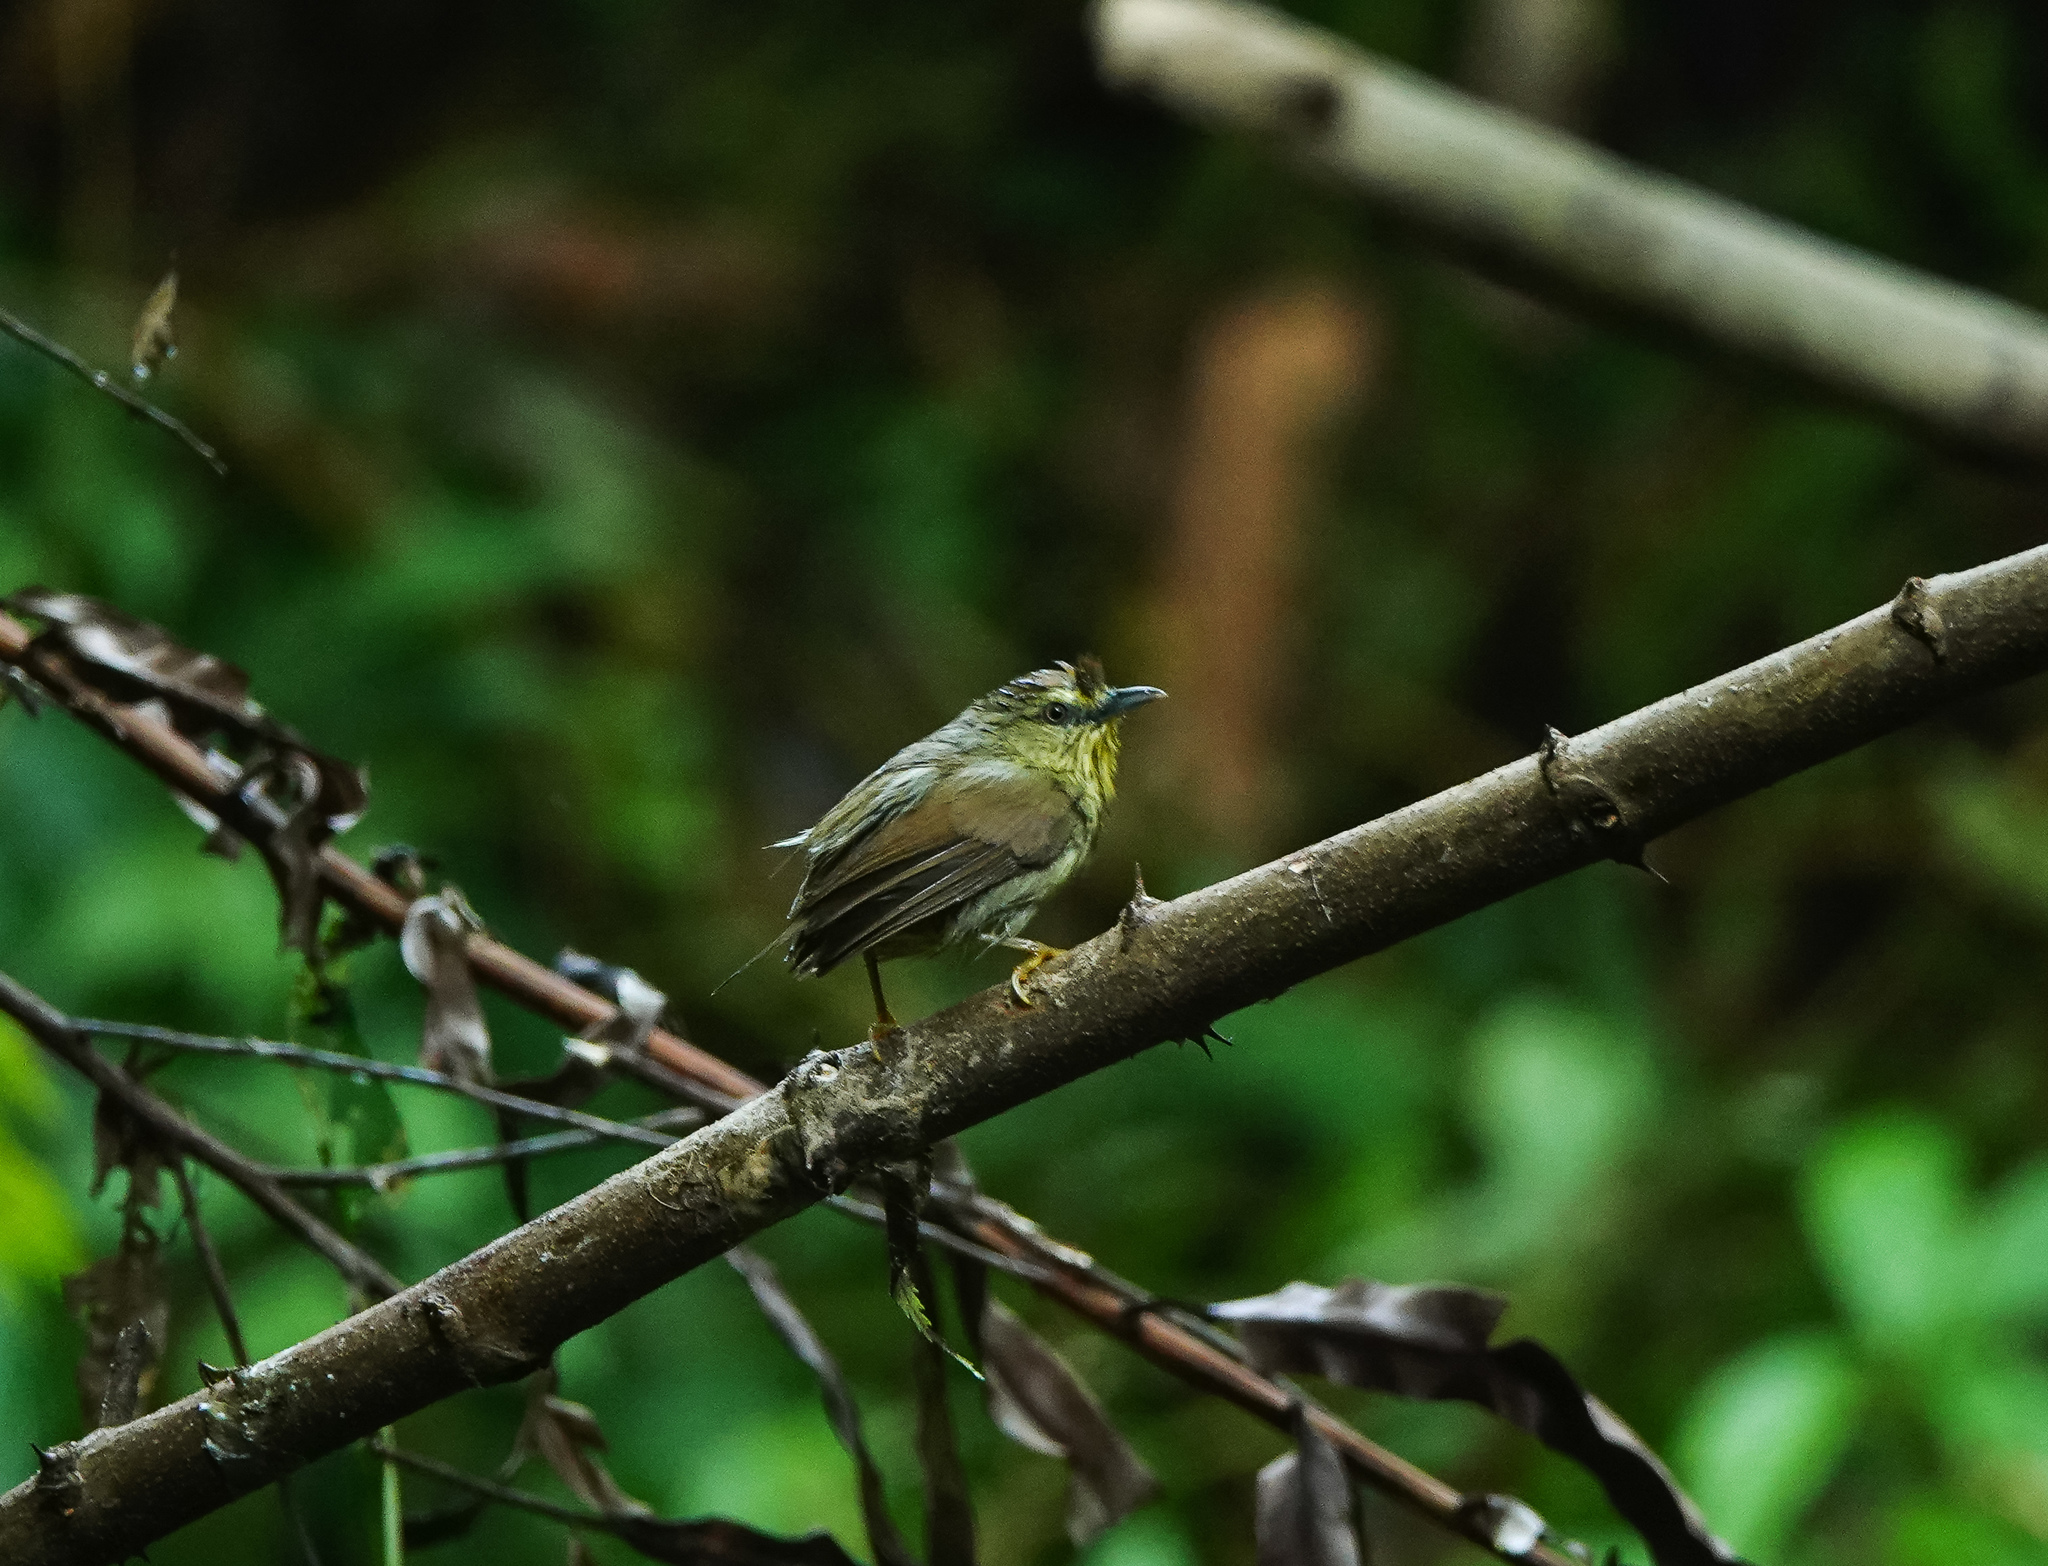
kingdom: Animalia
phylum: Chordata
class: Aves
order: Passeriformes
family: Timaliidae
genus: Macronus
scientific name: Macronus gularis
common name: Striped tit-babbler
